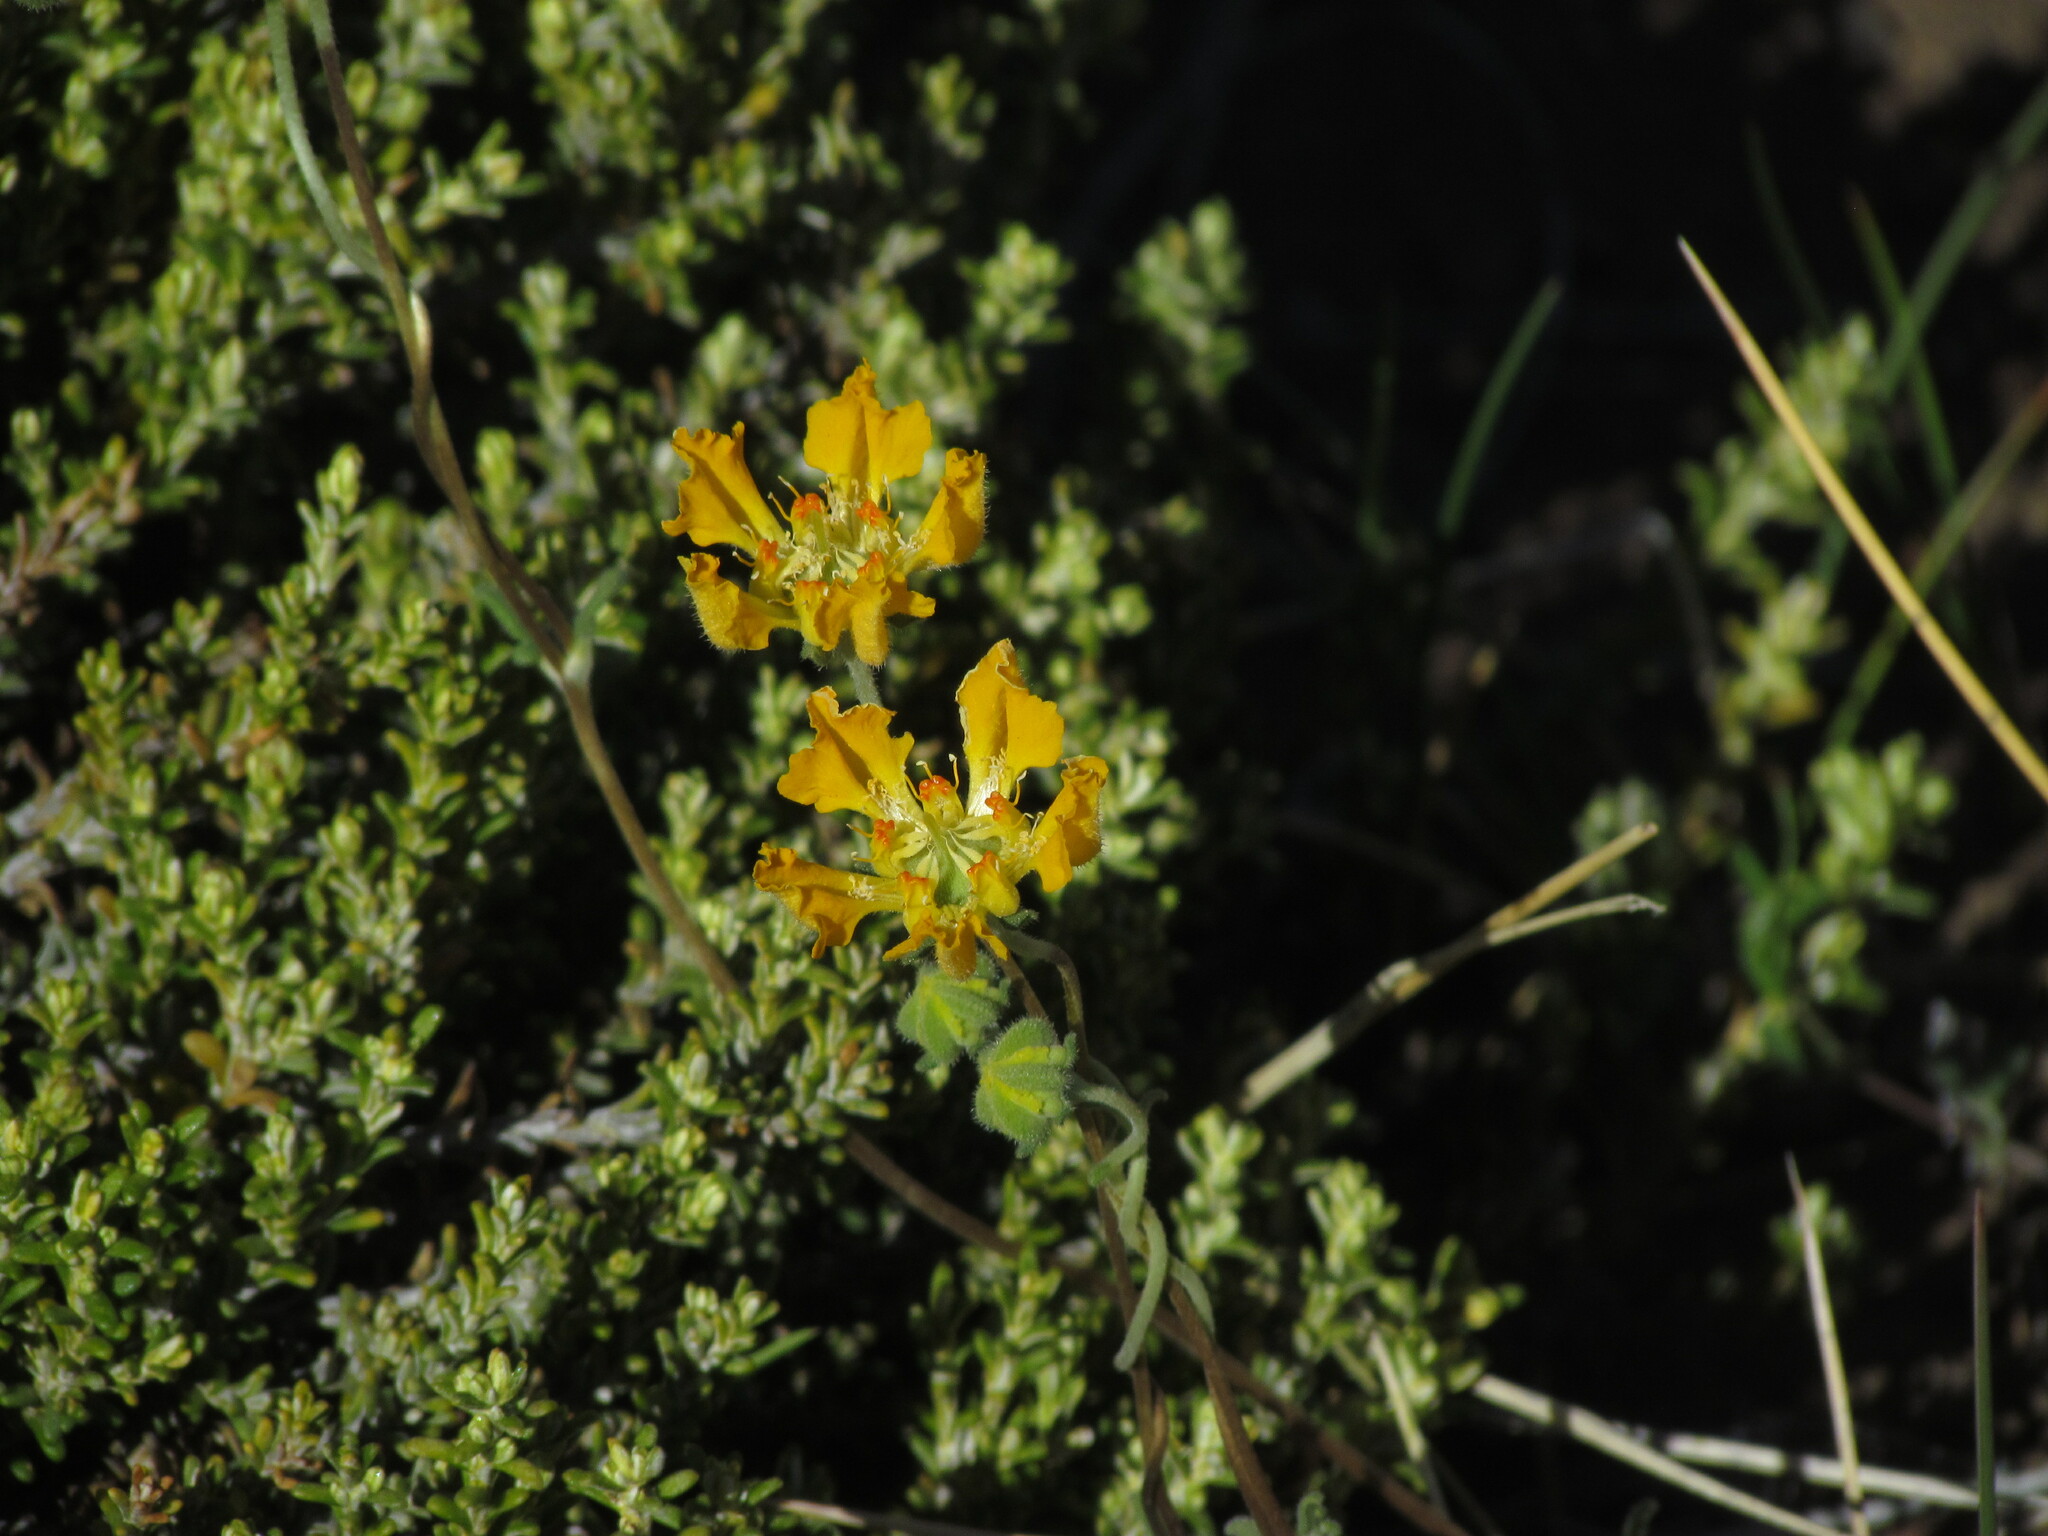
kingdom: Plantae
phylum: Tracheophyta
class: Magnoliopsida
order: Cornales
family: Loasaceae
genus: Pinnasa
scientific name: Pinnasa bergii
